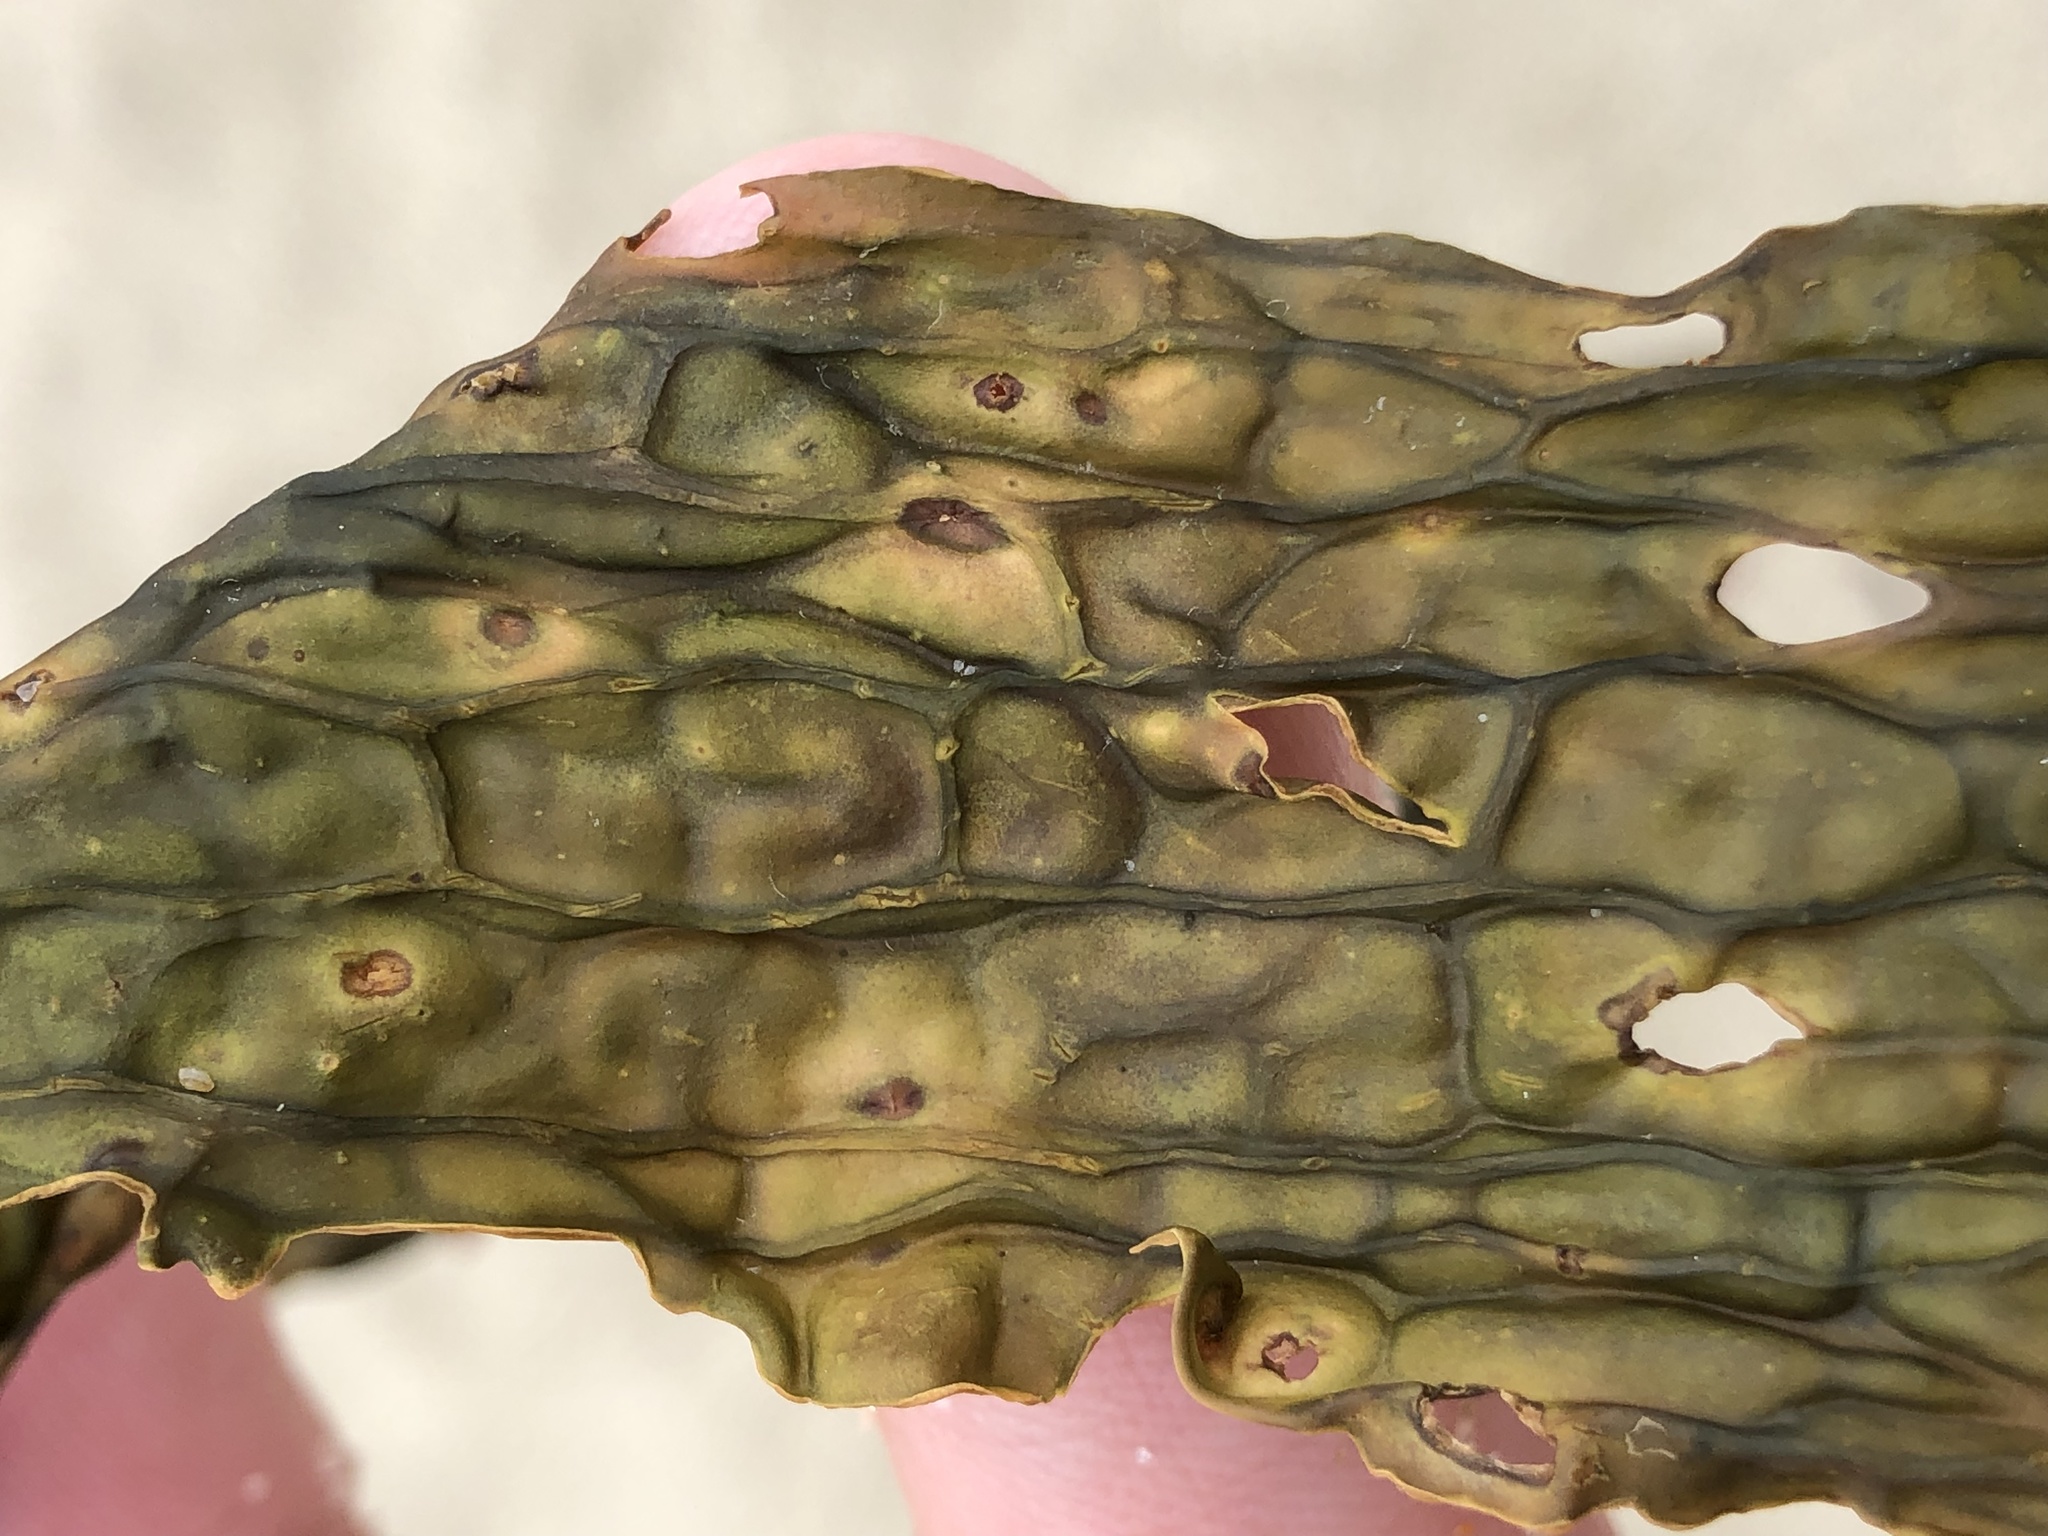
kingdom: Chromista
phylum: Ochrophyta
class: Phaeophyceae
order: Laminariales
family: Costariaceae
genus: Dictyoneurum
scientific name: Dictyoneurum californicum
